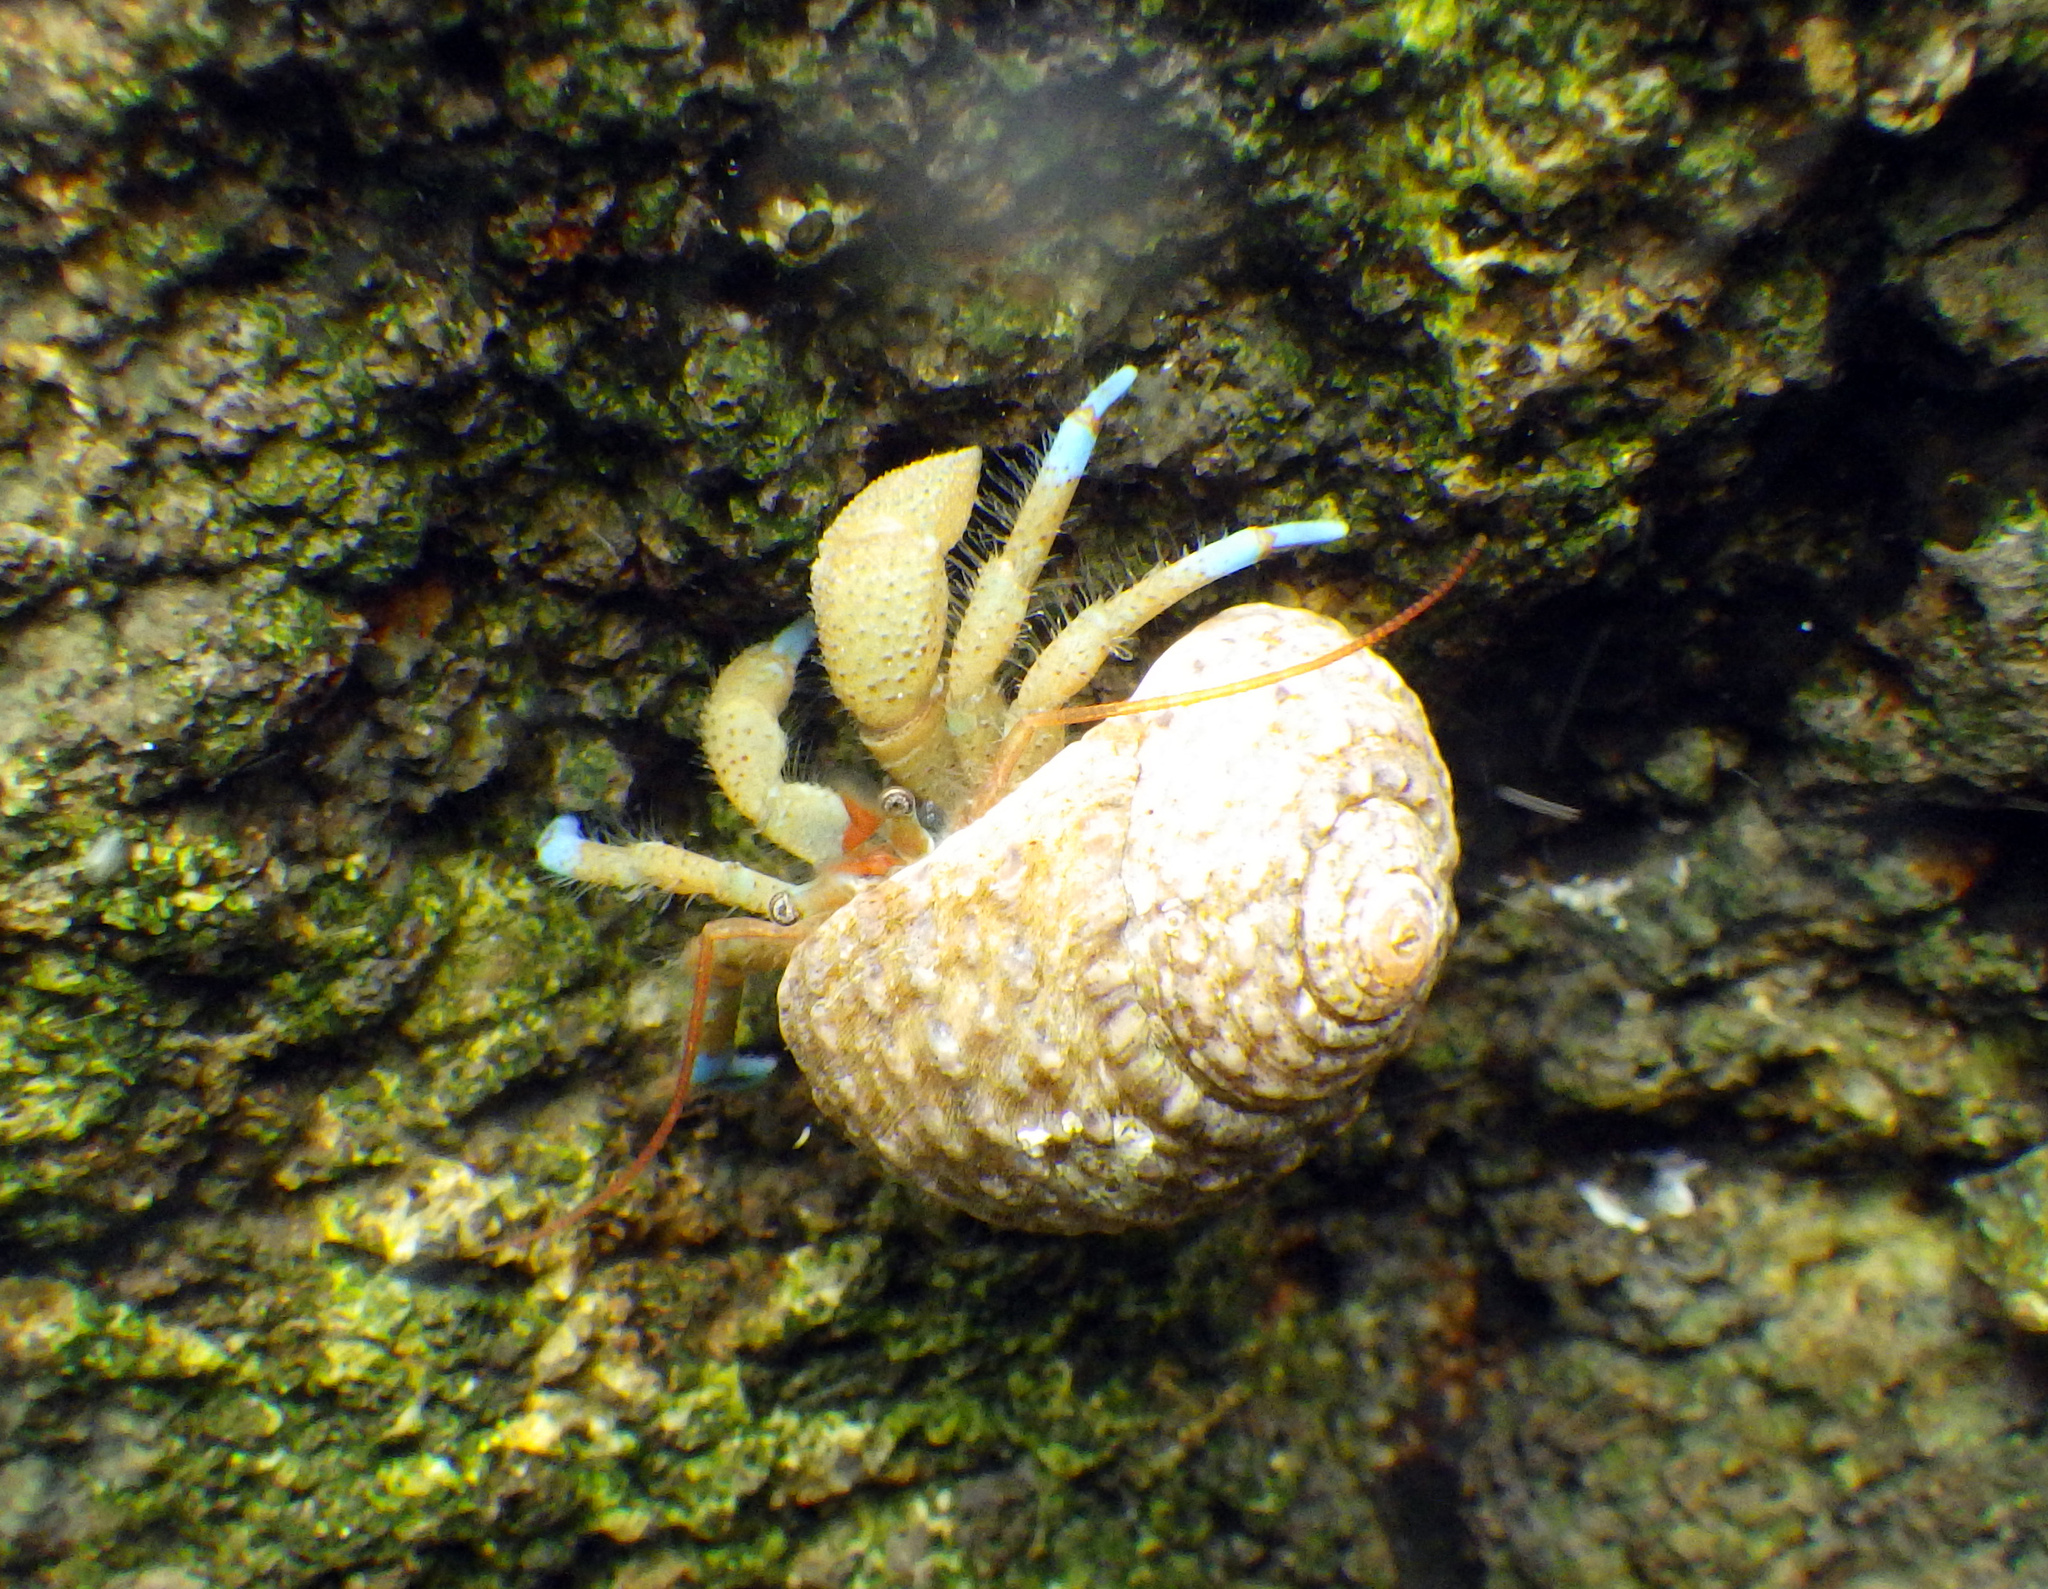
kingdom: Animalia
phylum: Arthropoda
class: Malacostraca
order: Decapoda
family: Paguridae
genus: Pagurus
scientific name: Pagurus samuelis
